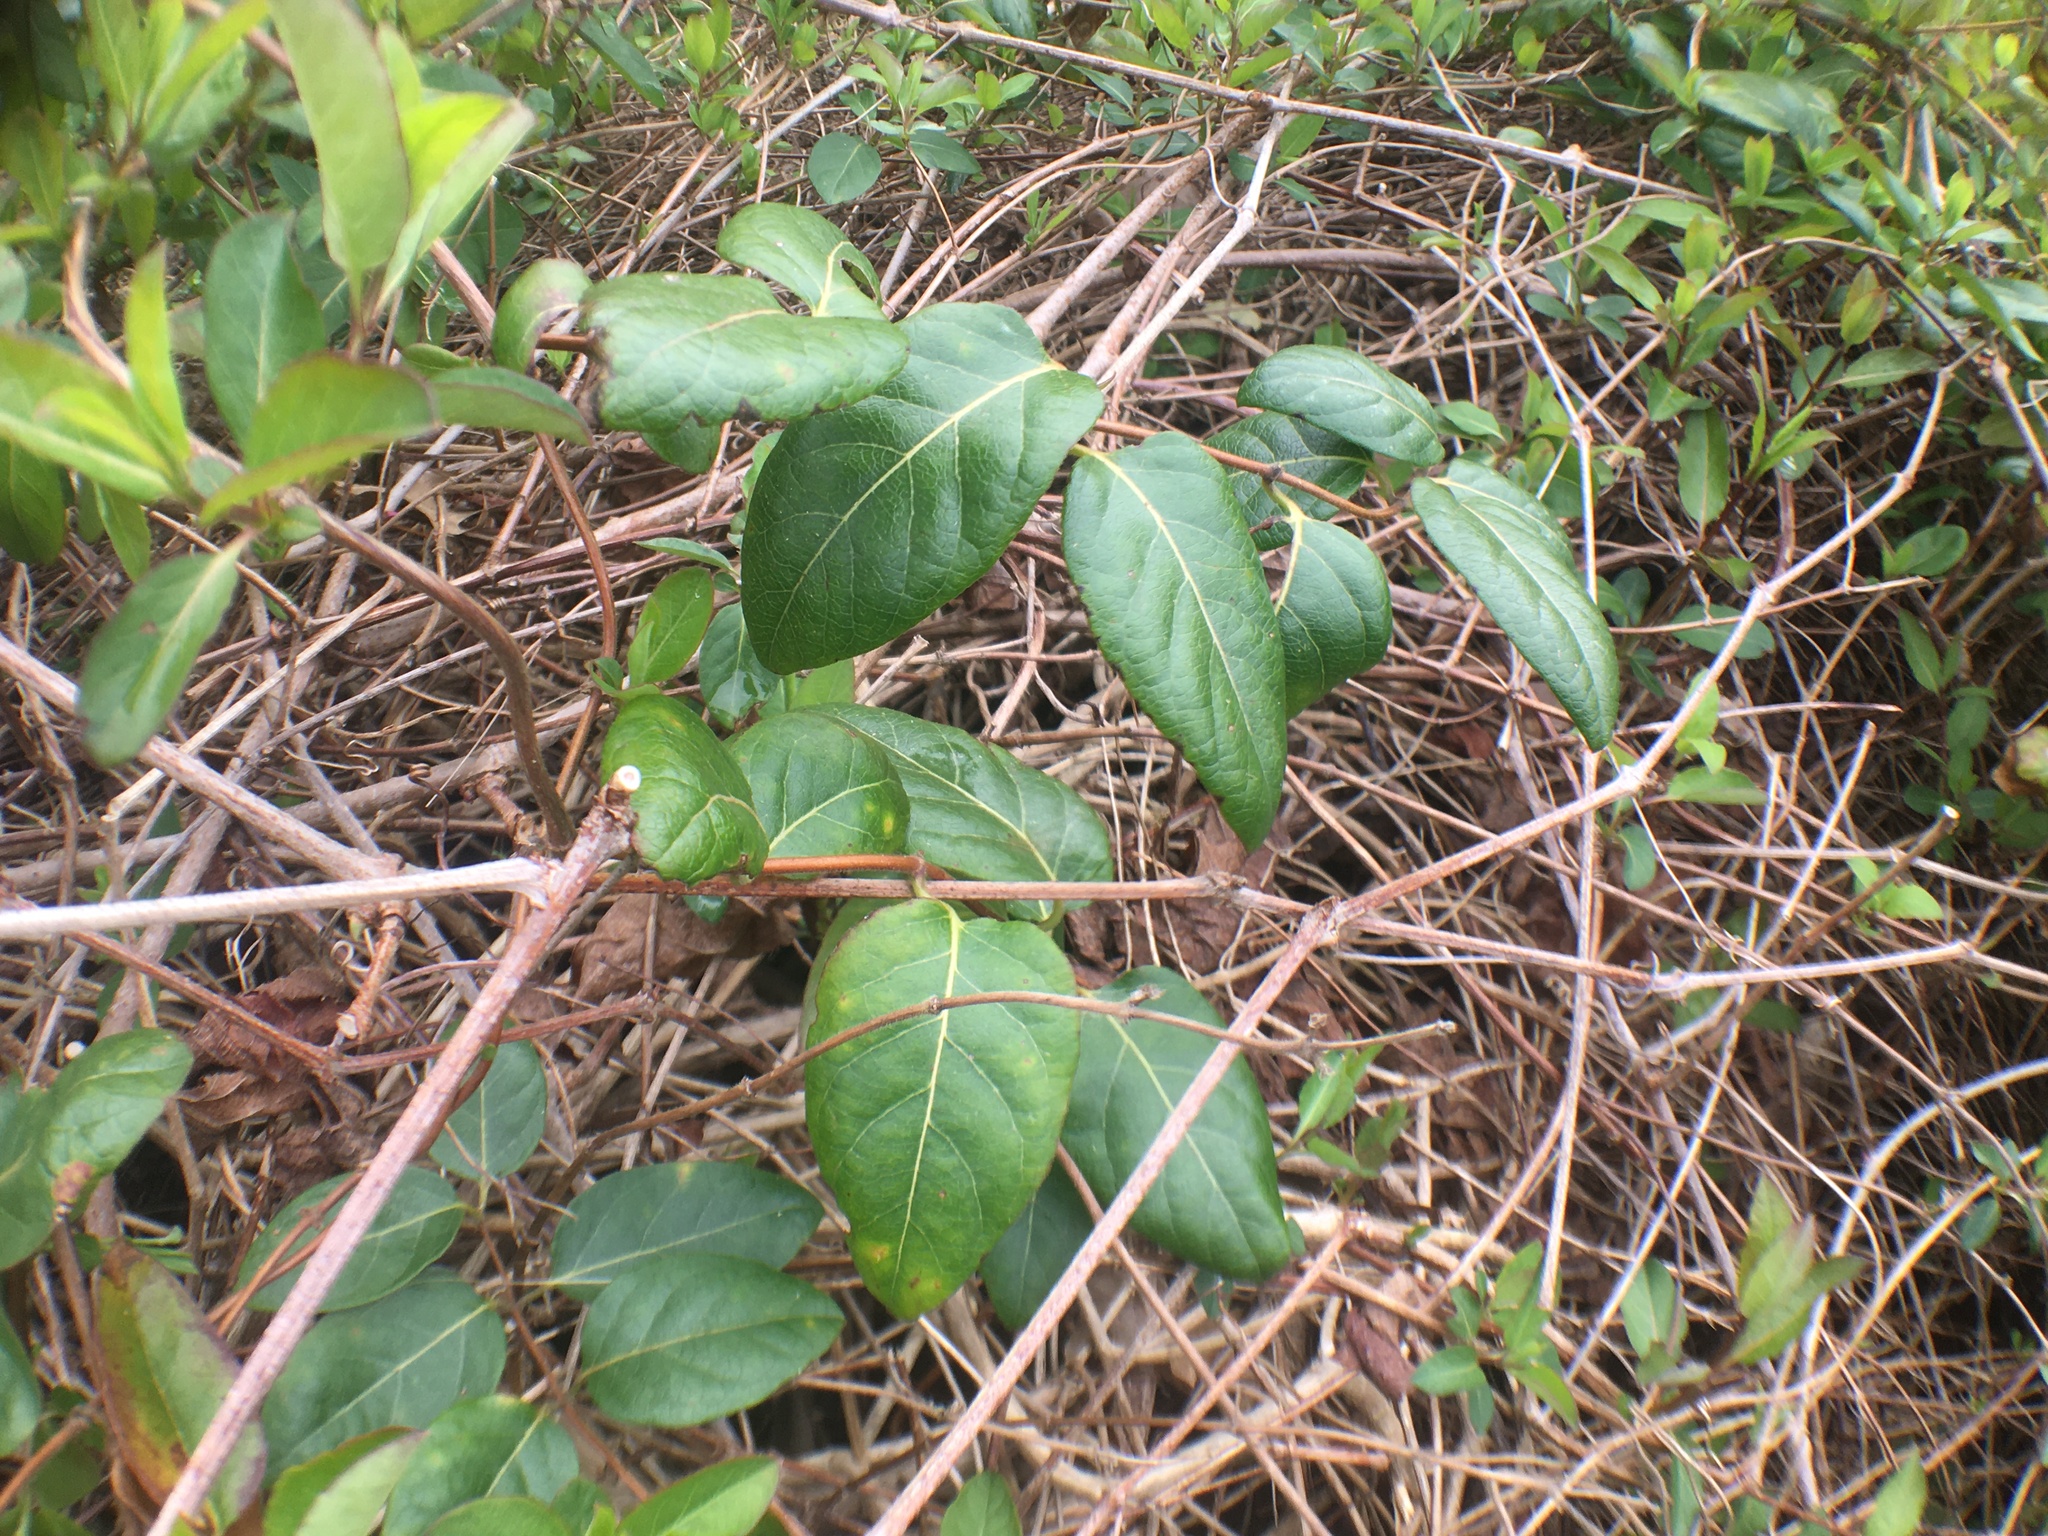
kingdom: Plantae
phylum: Tracheophyta
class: Magnoliopsida
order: Dipsacales
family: Caprifoliaceae
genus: Lonicera
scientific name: Lonicera japonica
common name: Japanese honeysuckle
